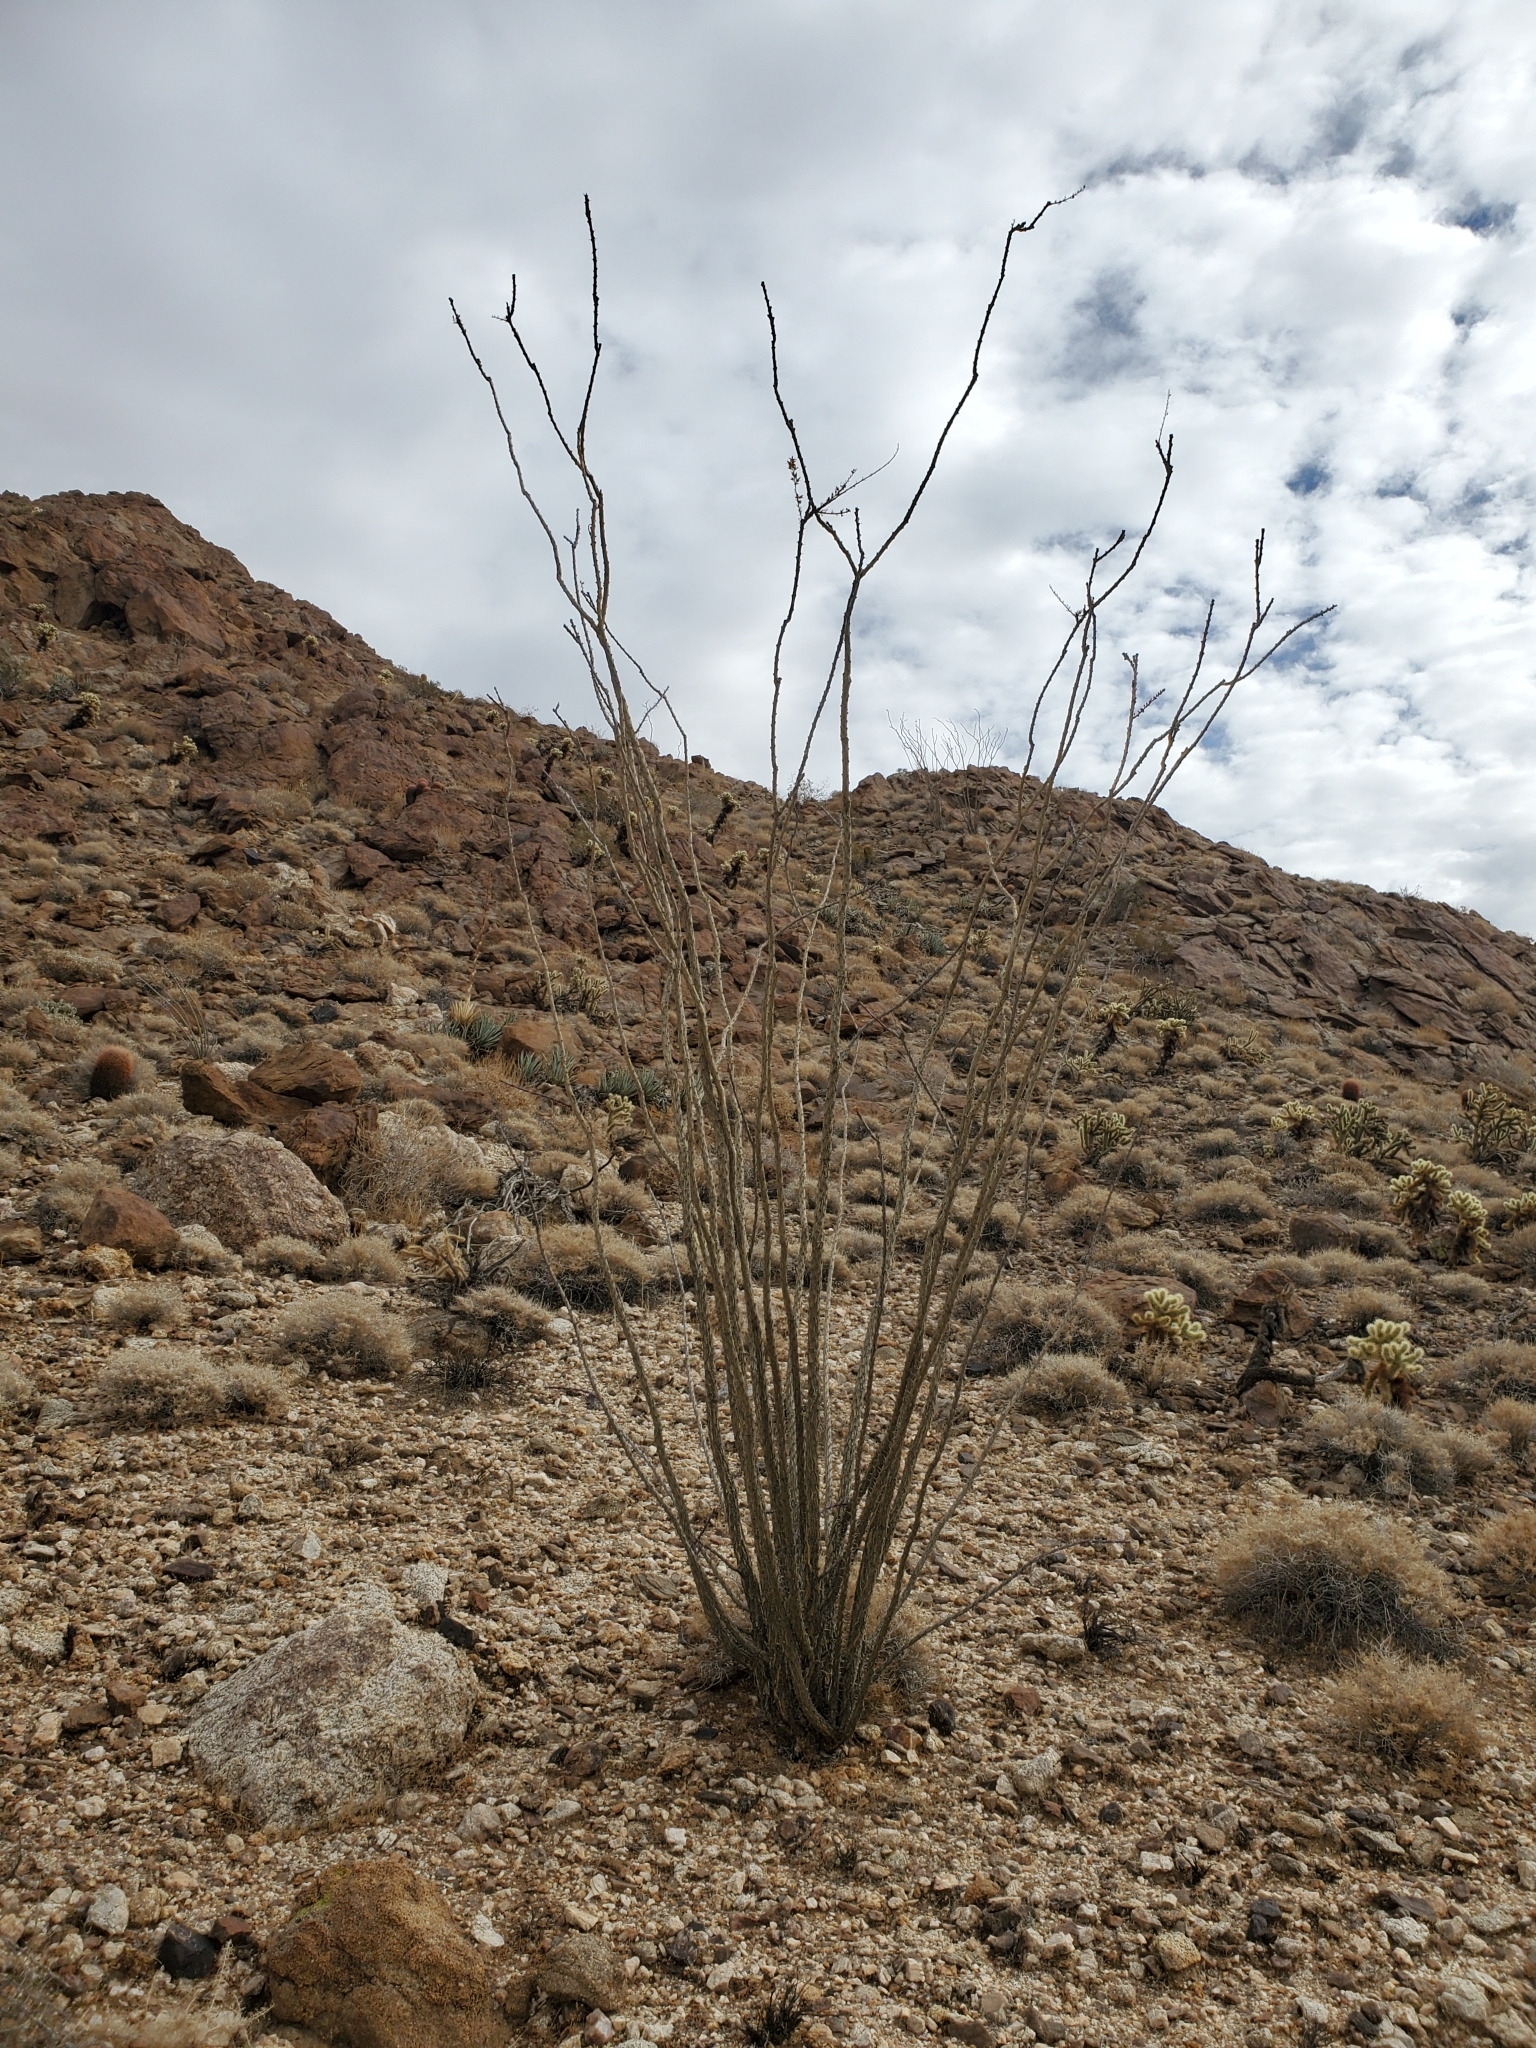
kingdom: Plantae
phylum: Tracheophyta
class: Magnoliopsida
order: Ericales
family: Fouquieriaceae
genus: Fouquieria
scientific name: Fouquieria splendens
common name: Vine-cactus
